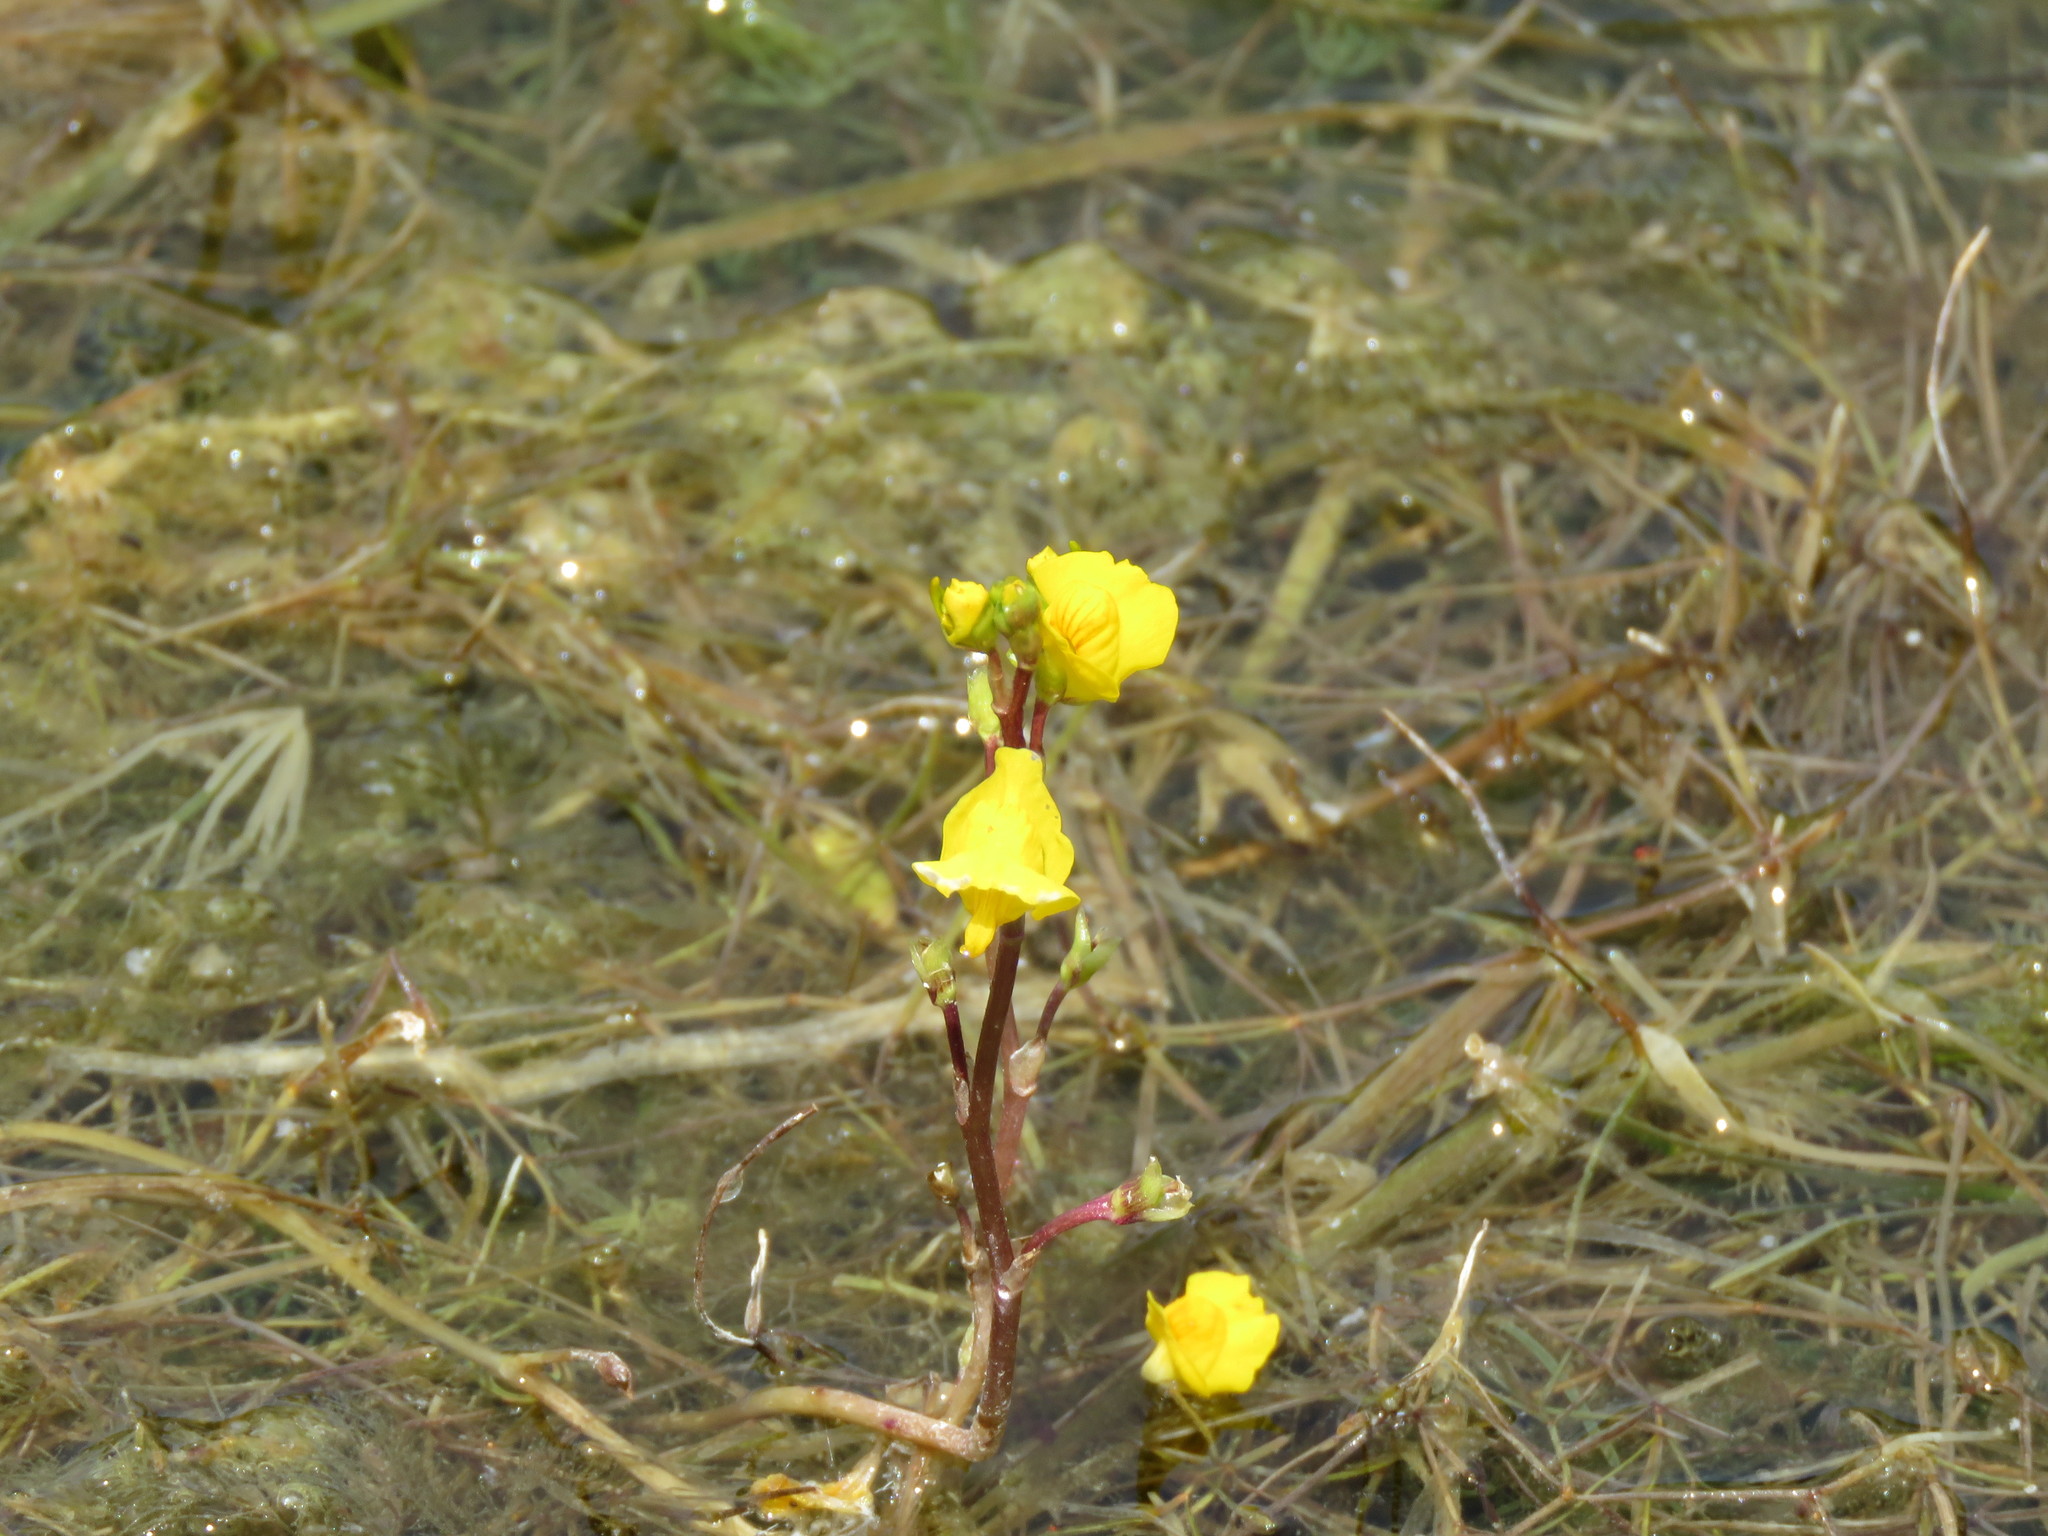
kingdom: Plantae
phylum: Tracheophyta
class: Magnoliopsida
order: Lamiales
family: Lentibulariaceae
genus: Utricularia
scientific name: Utricularia macrorhiza
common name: Common bladderwort
